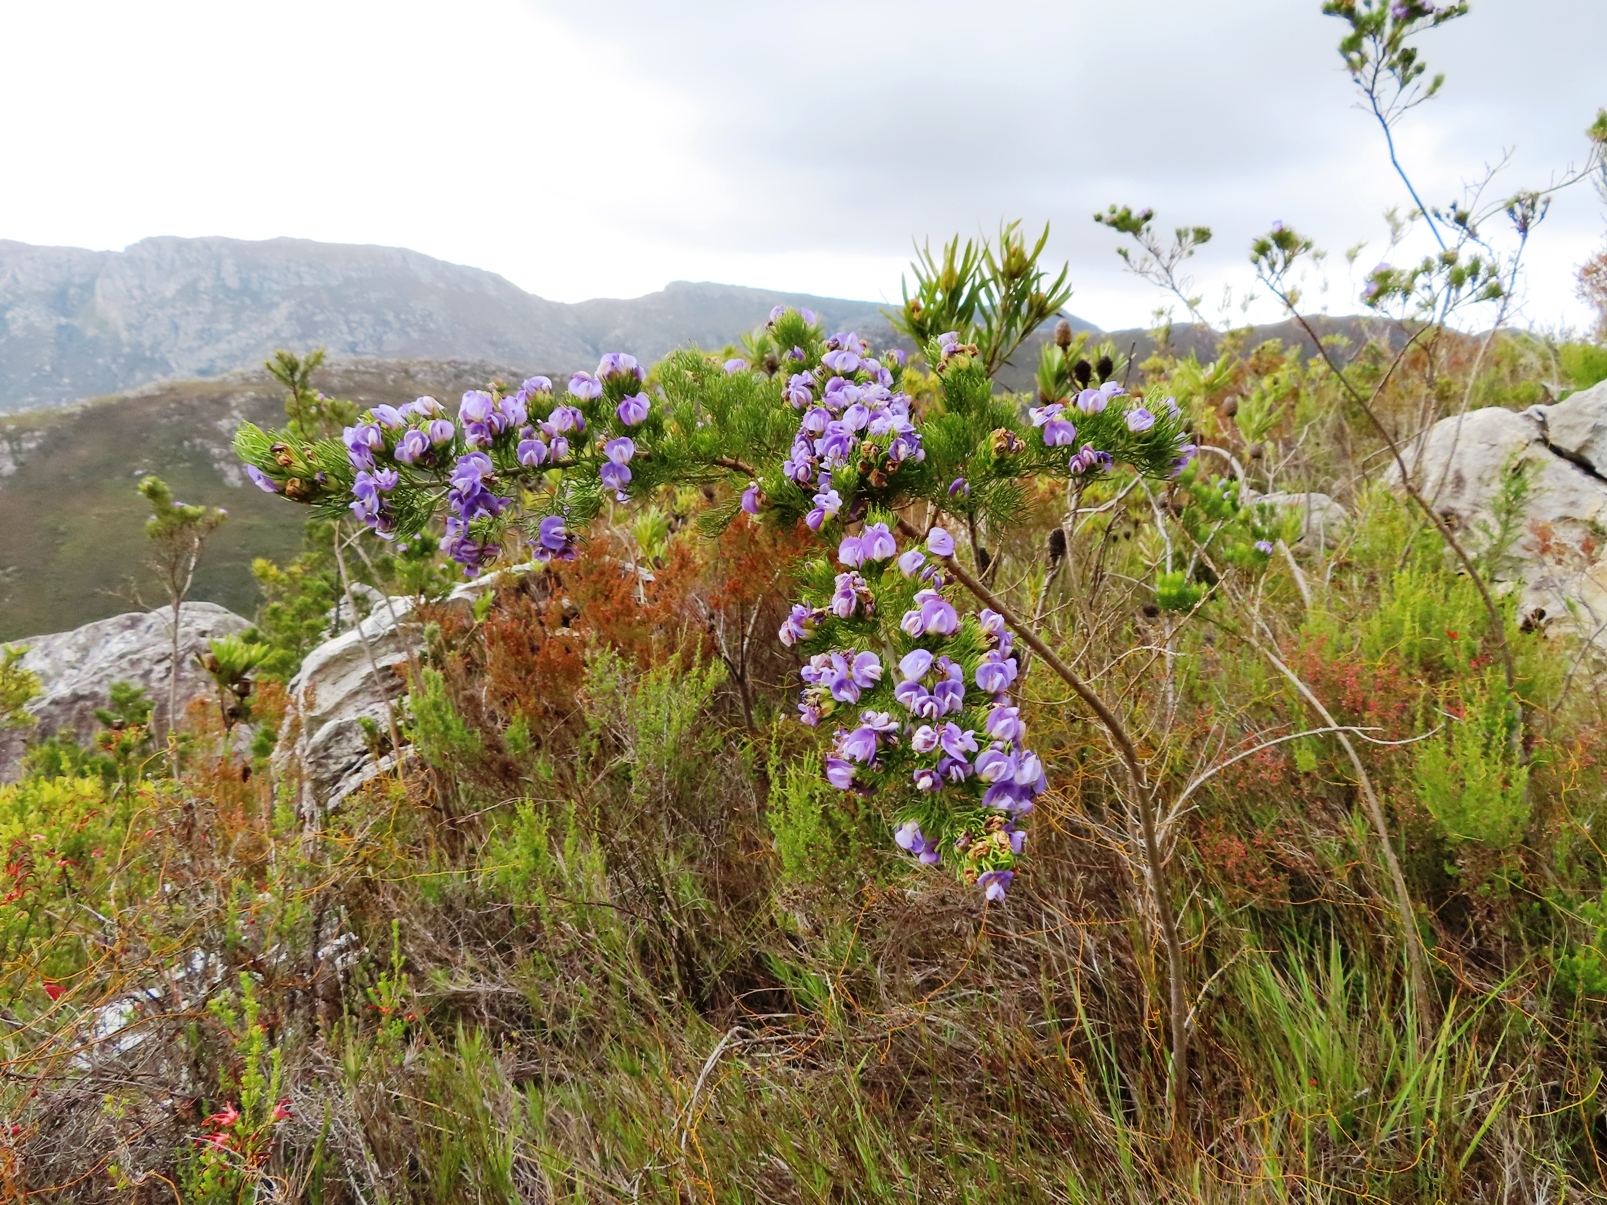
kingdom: Plantae
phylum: Tracheophyta
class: Magnoliopsida
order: Fabales
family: Fabaceae
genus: Psoralea
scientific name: Psoralea speciosa
